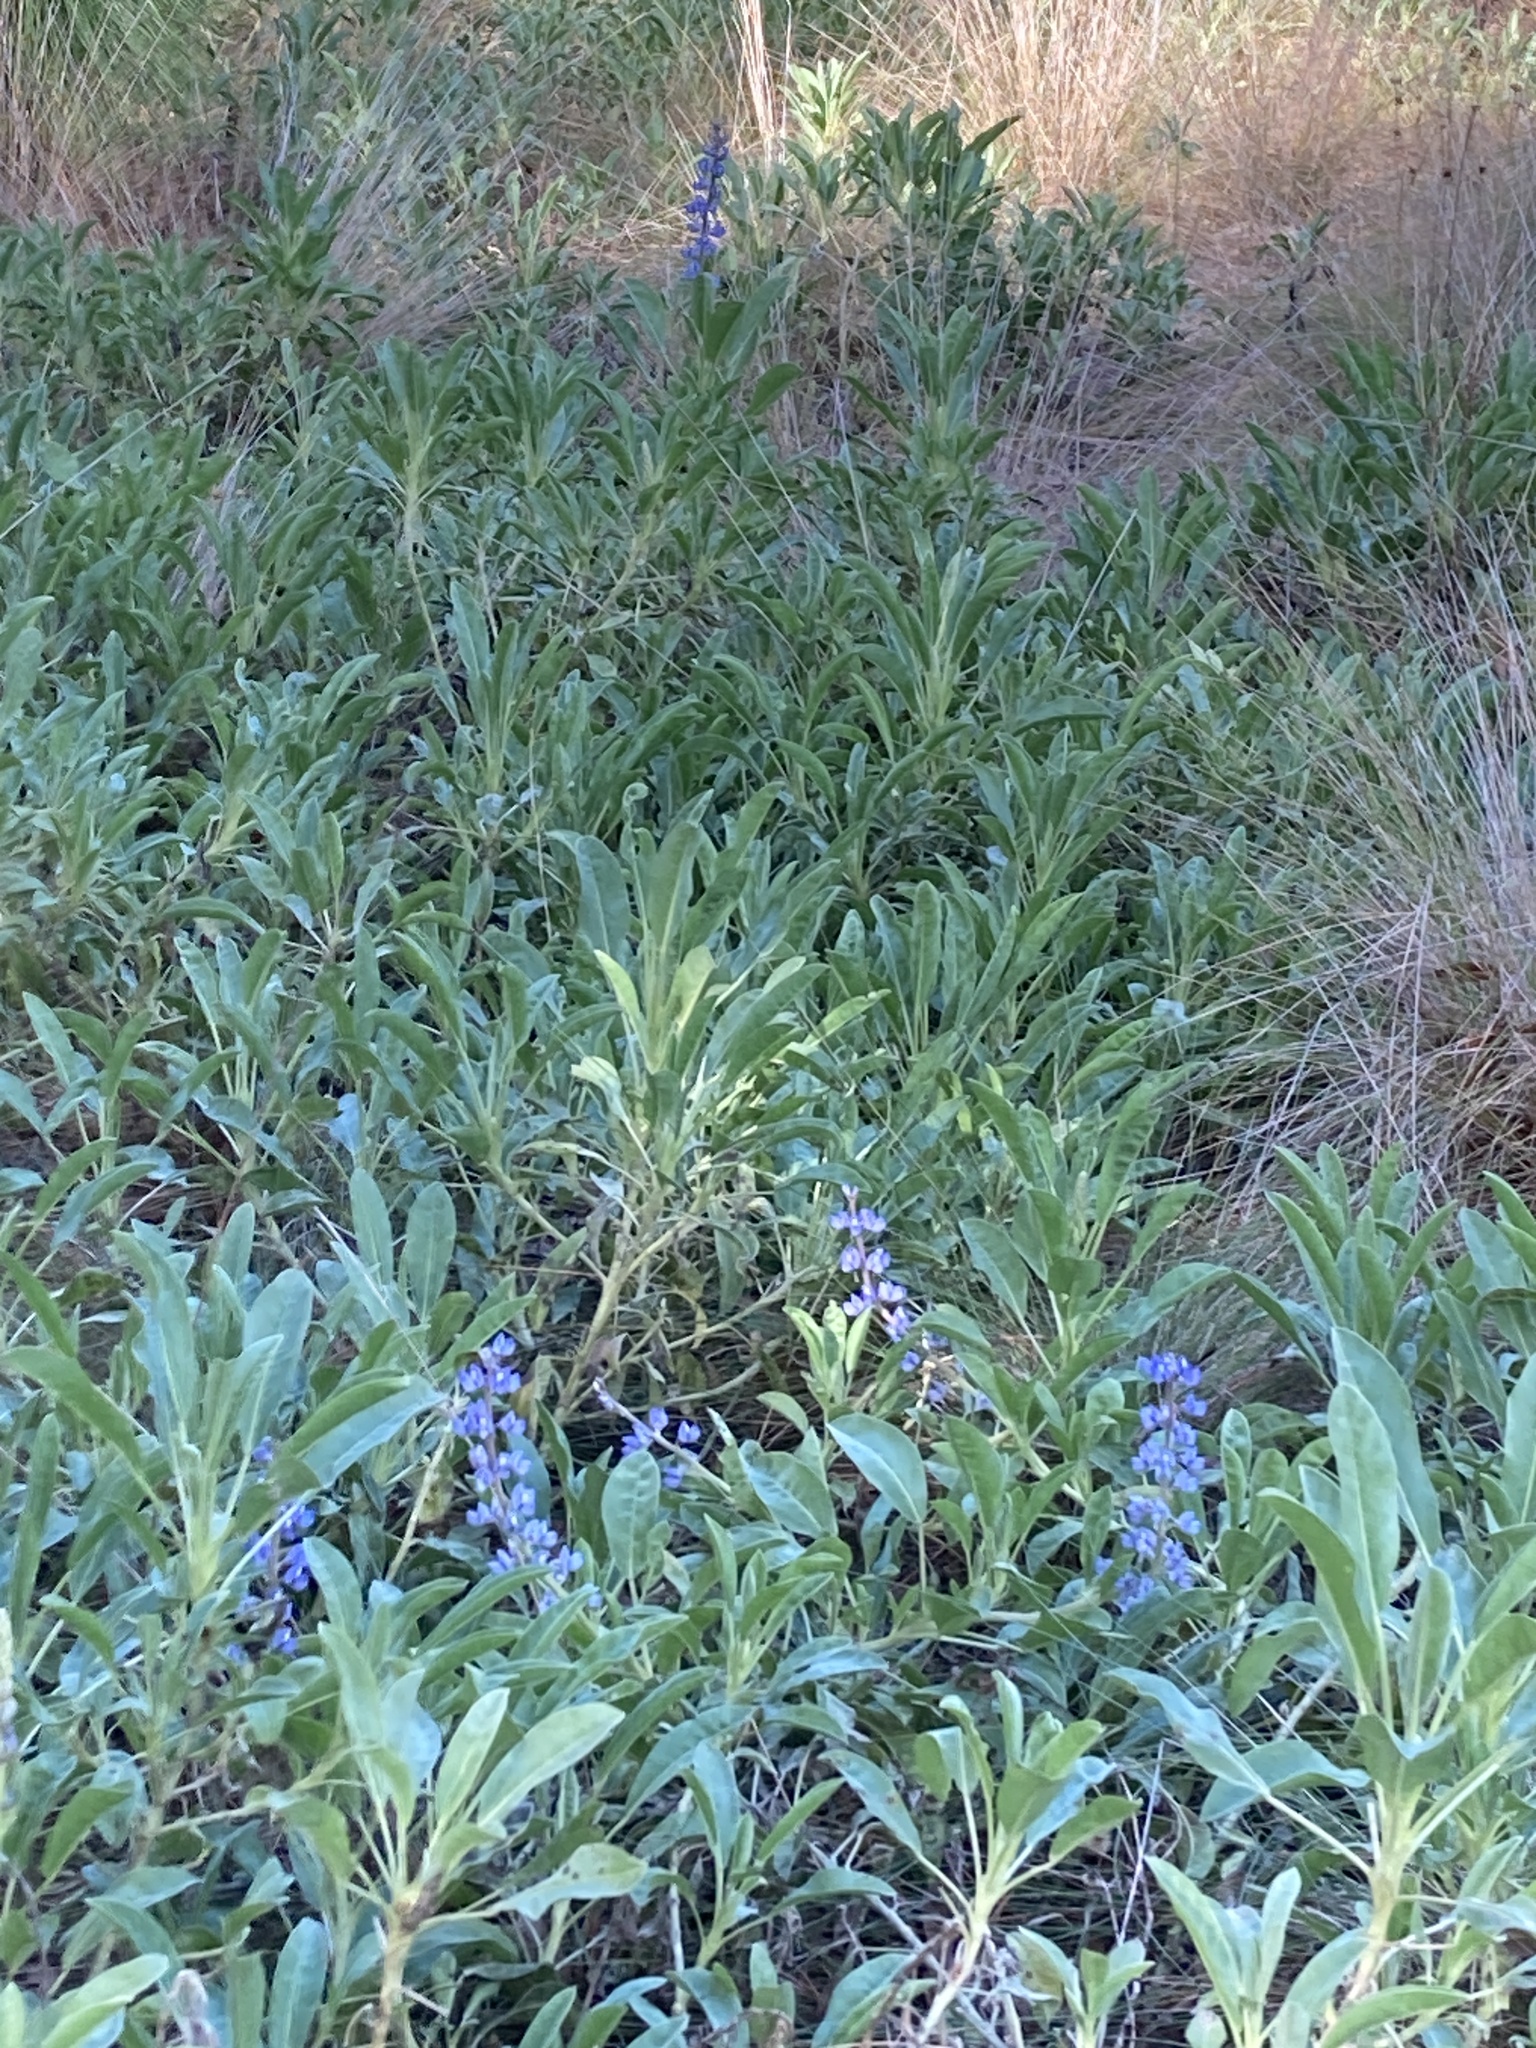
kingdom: Plantae
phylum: Tracheophyta
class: Magnoliopsida
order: Fabales
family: Fabaceae
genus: Lupinus
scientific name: Lupinus
